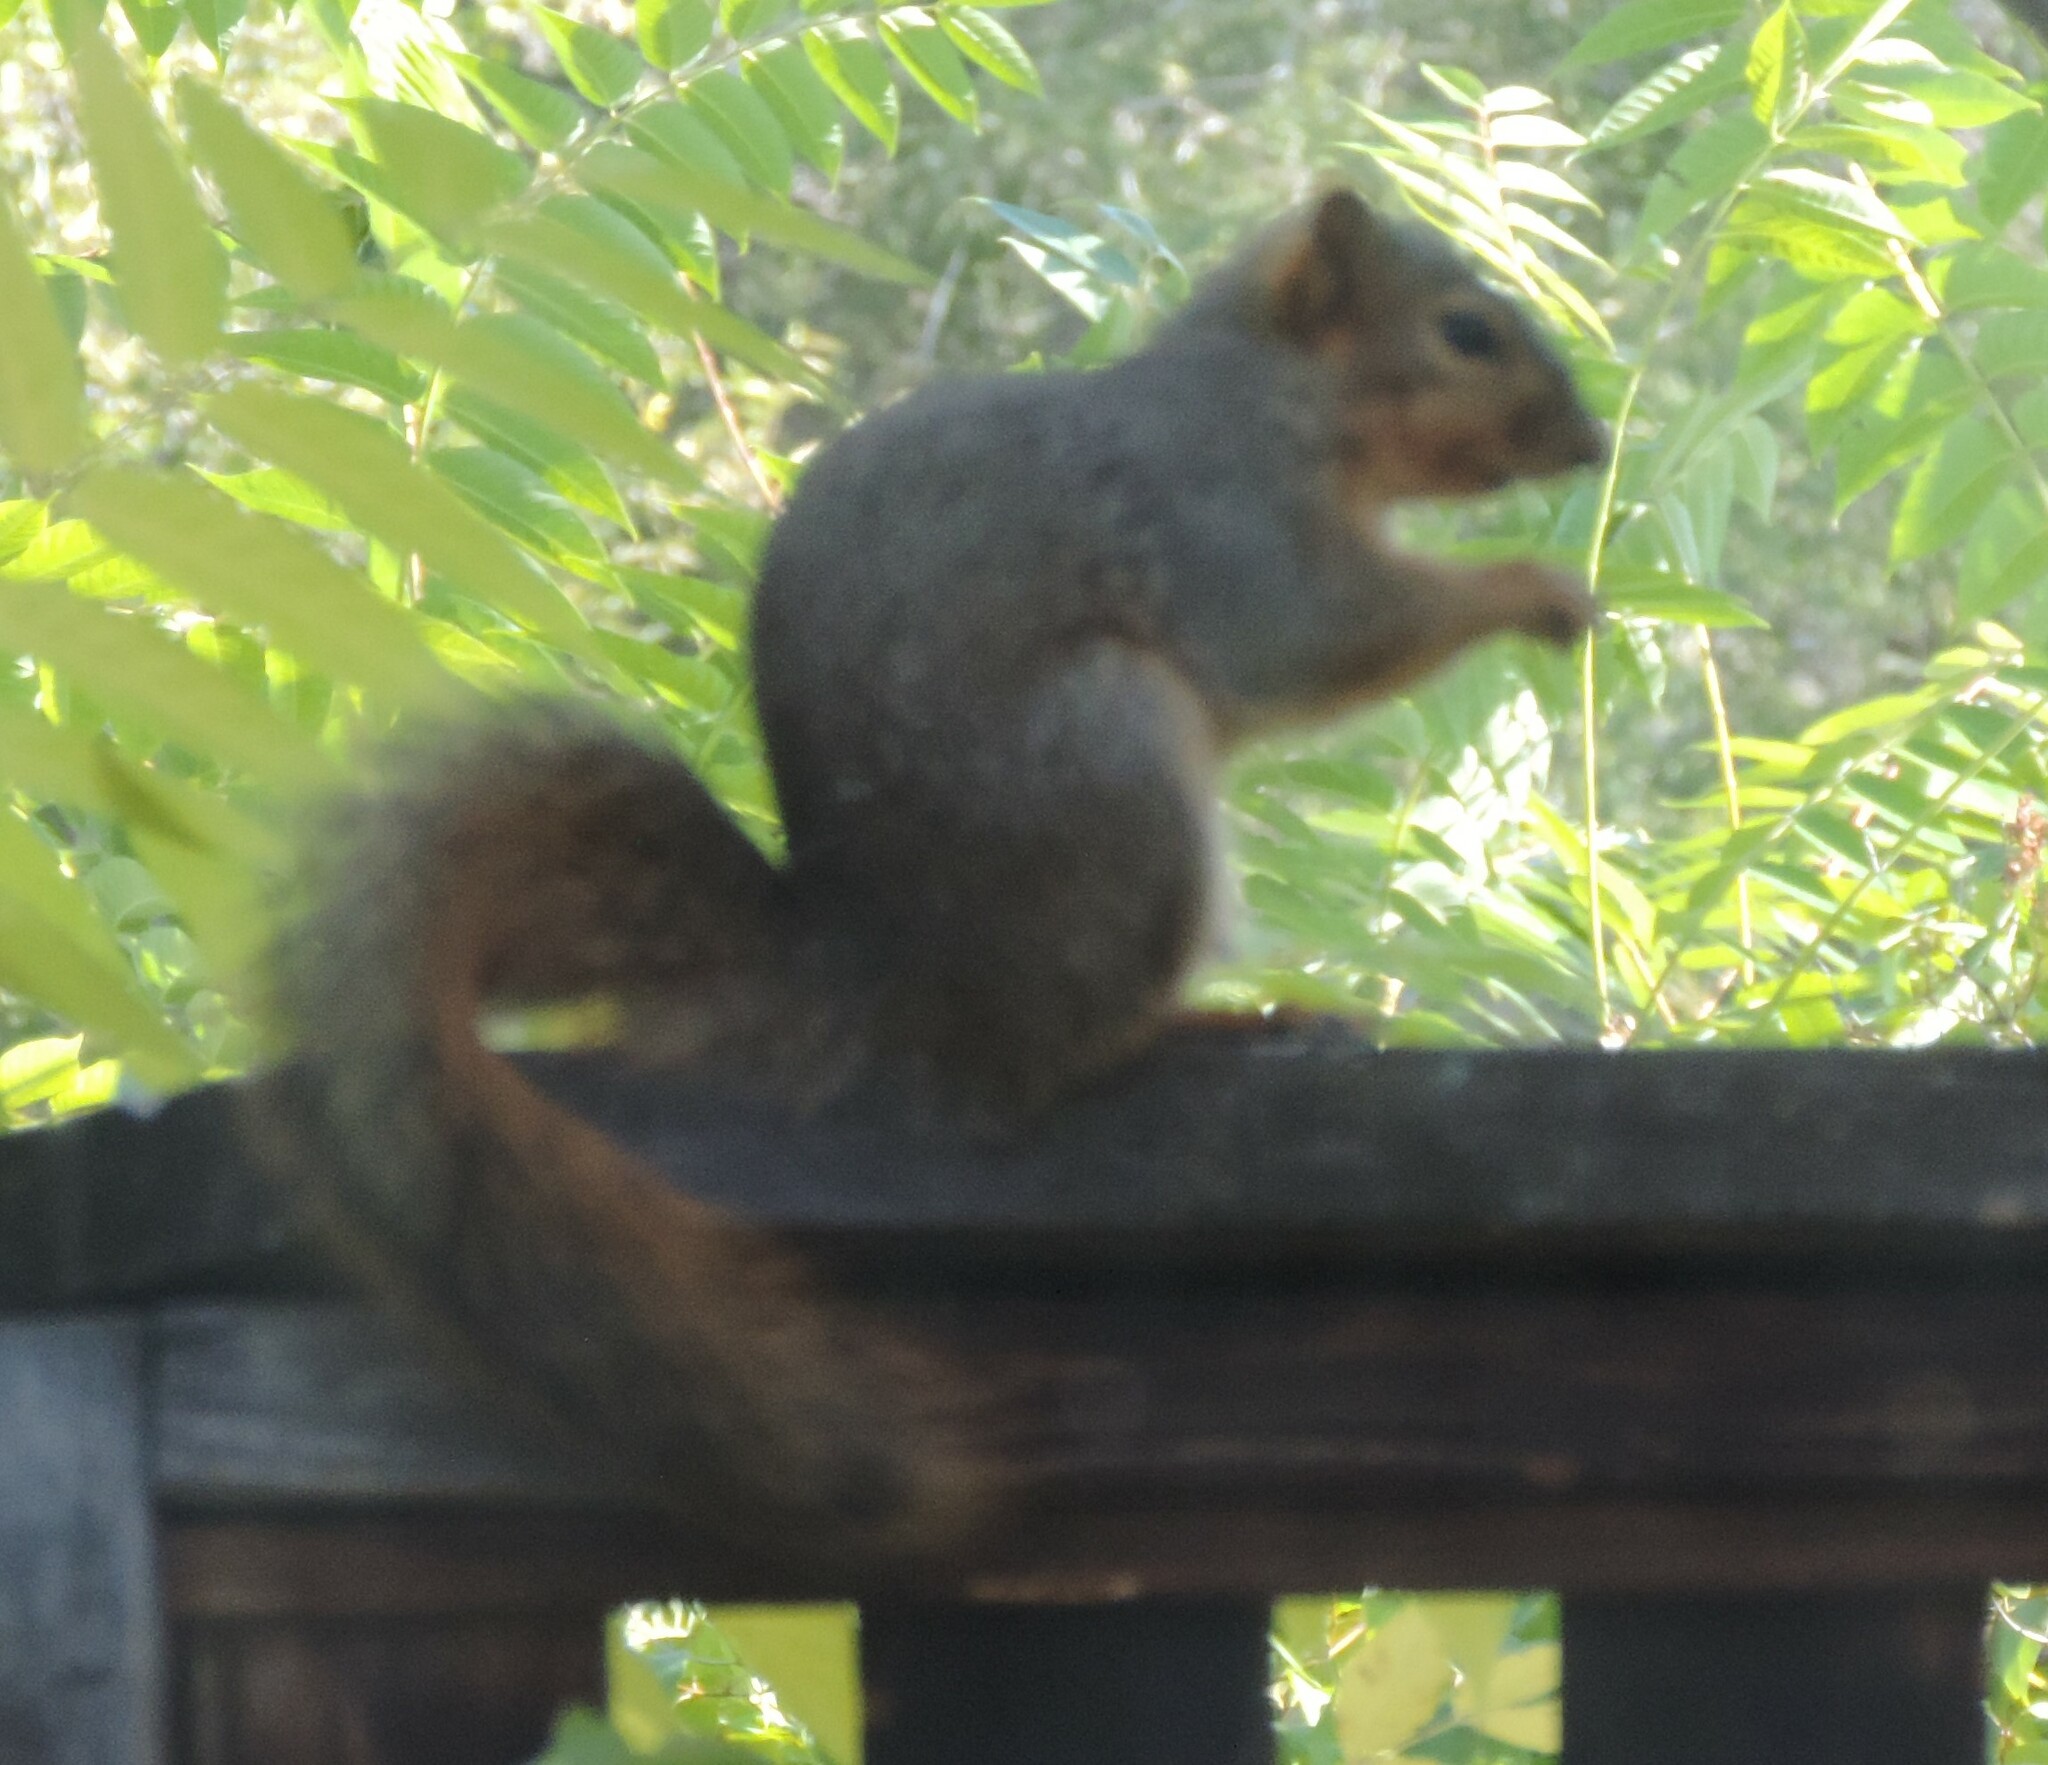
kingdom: Animalia
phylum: Chordata
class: Mammalia
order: Rodentia
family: Sciuridae
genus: Sciurus
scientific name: Sciurus niger
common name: Fox squirrel
